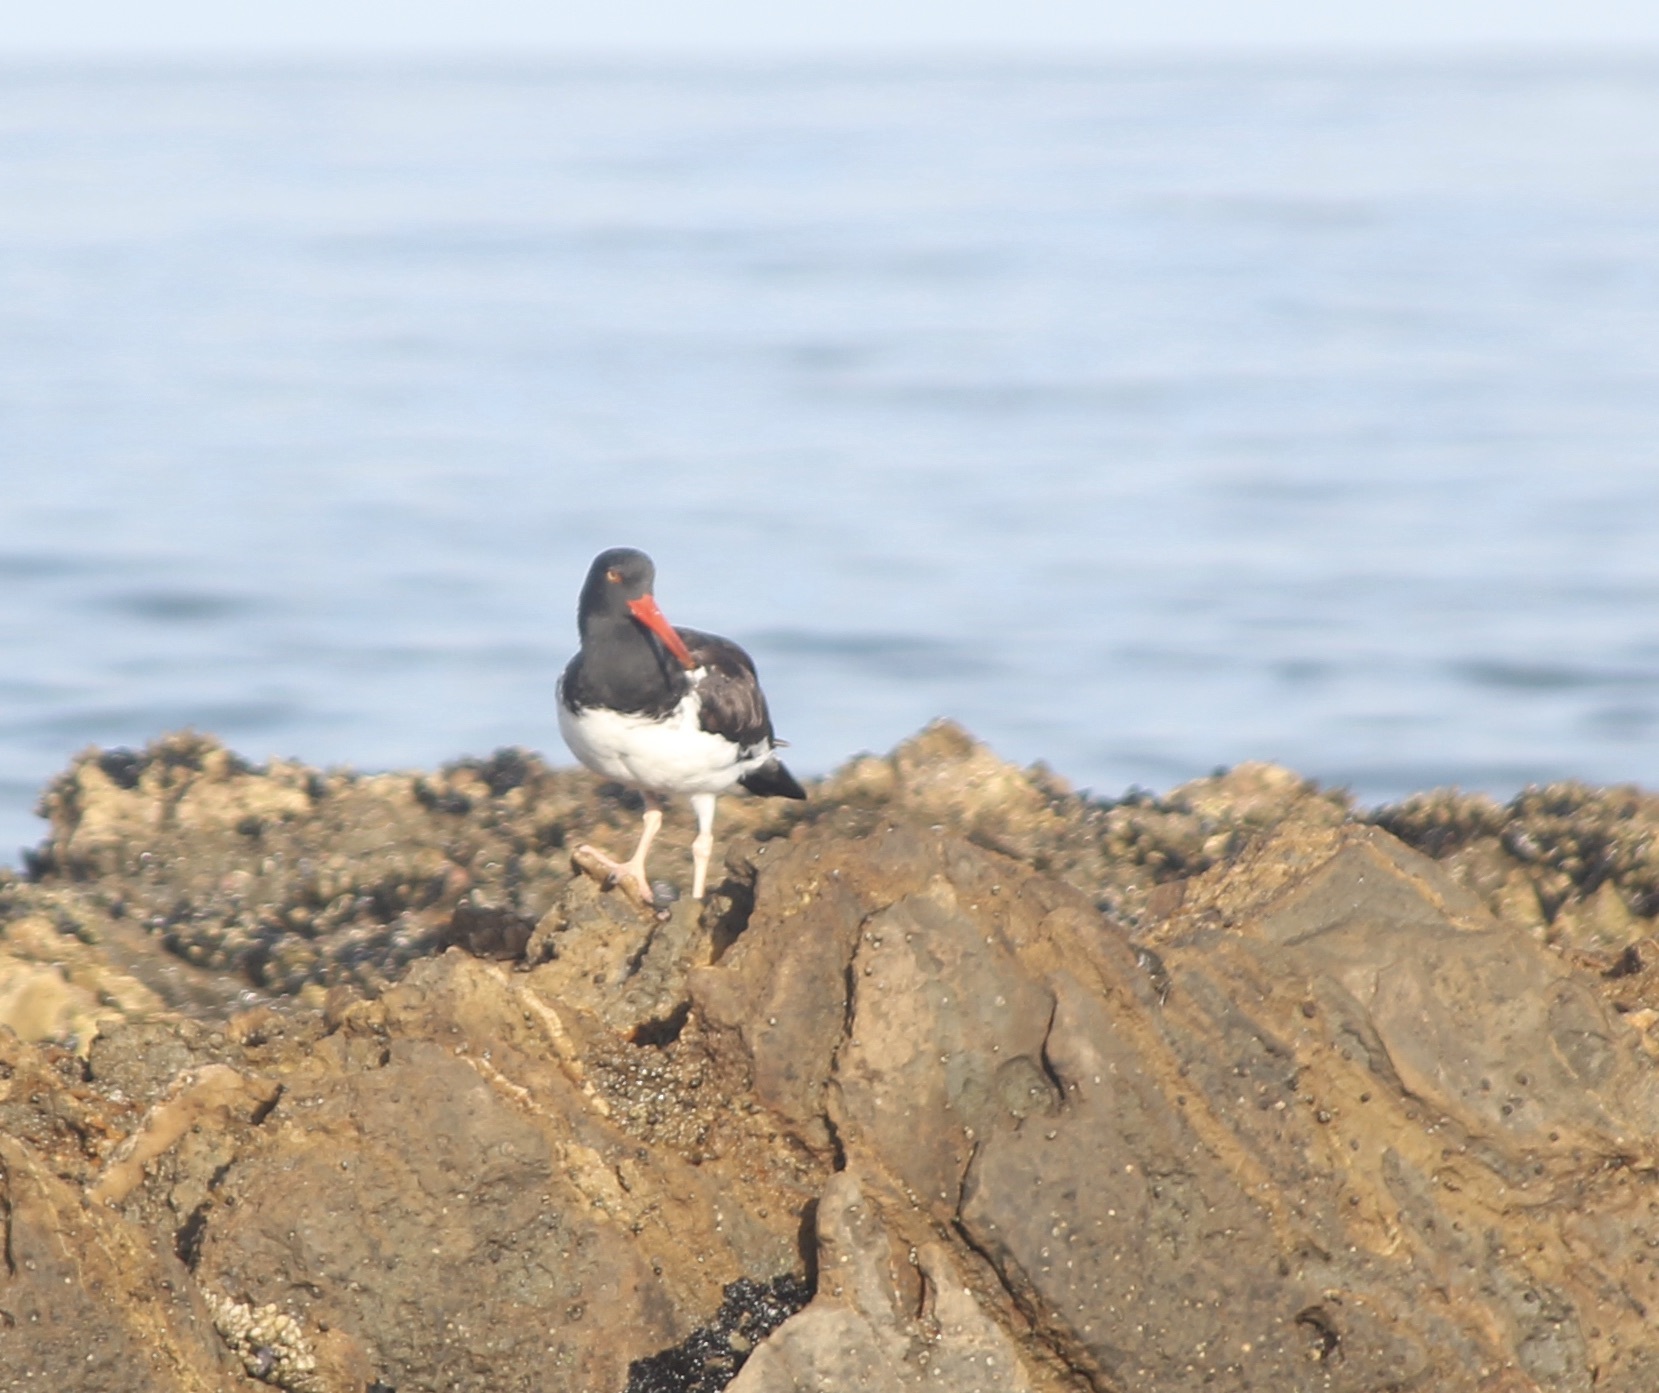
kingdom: Animalia
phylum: Chordata
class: Aves
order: Charadriiformes
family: Haematopodidae
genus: Haematopus
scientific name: Haematopus palliatus
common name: American oystercatcher
